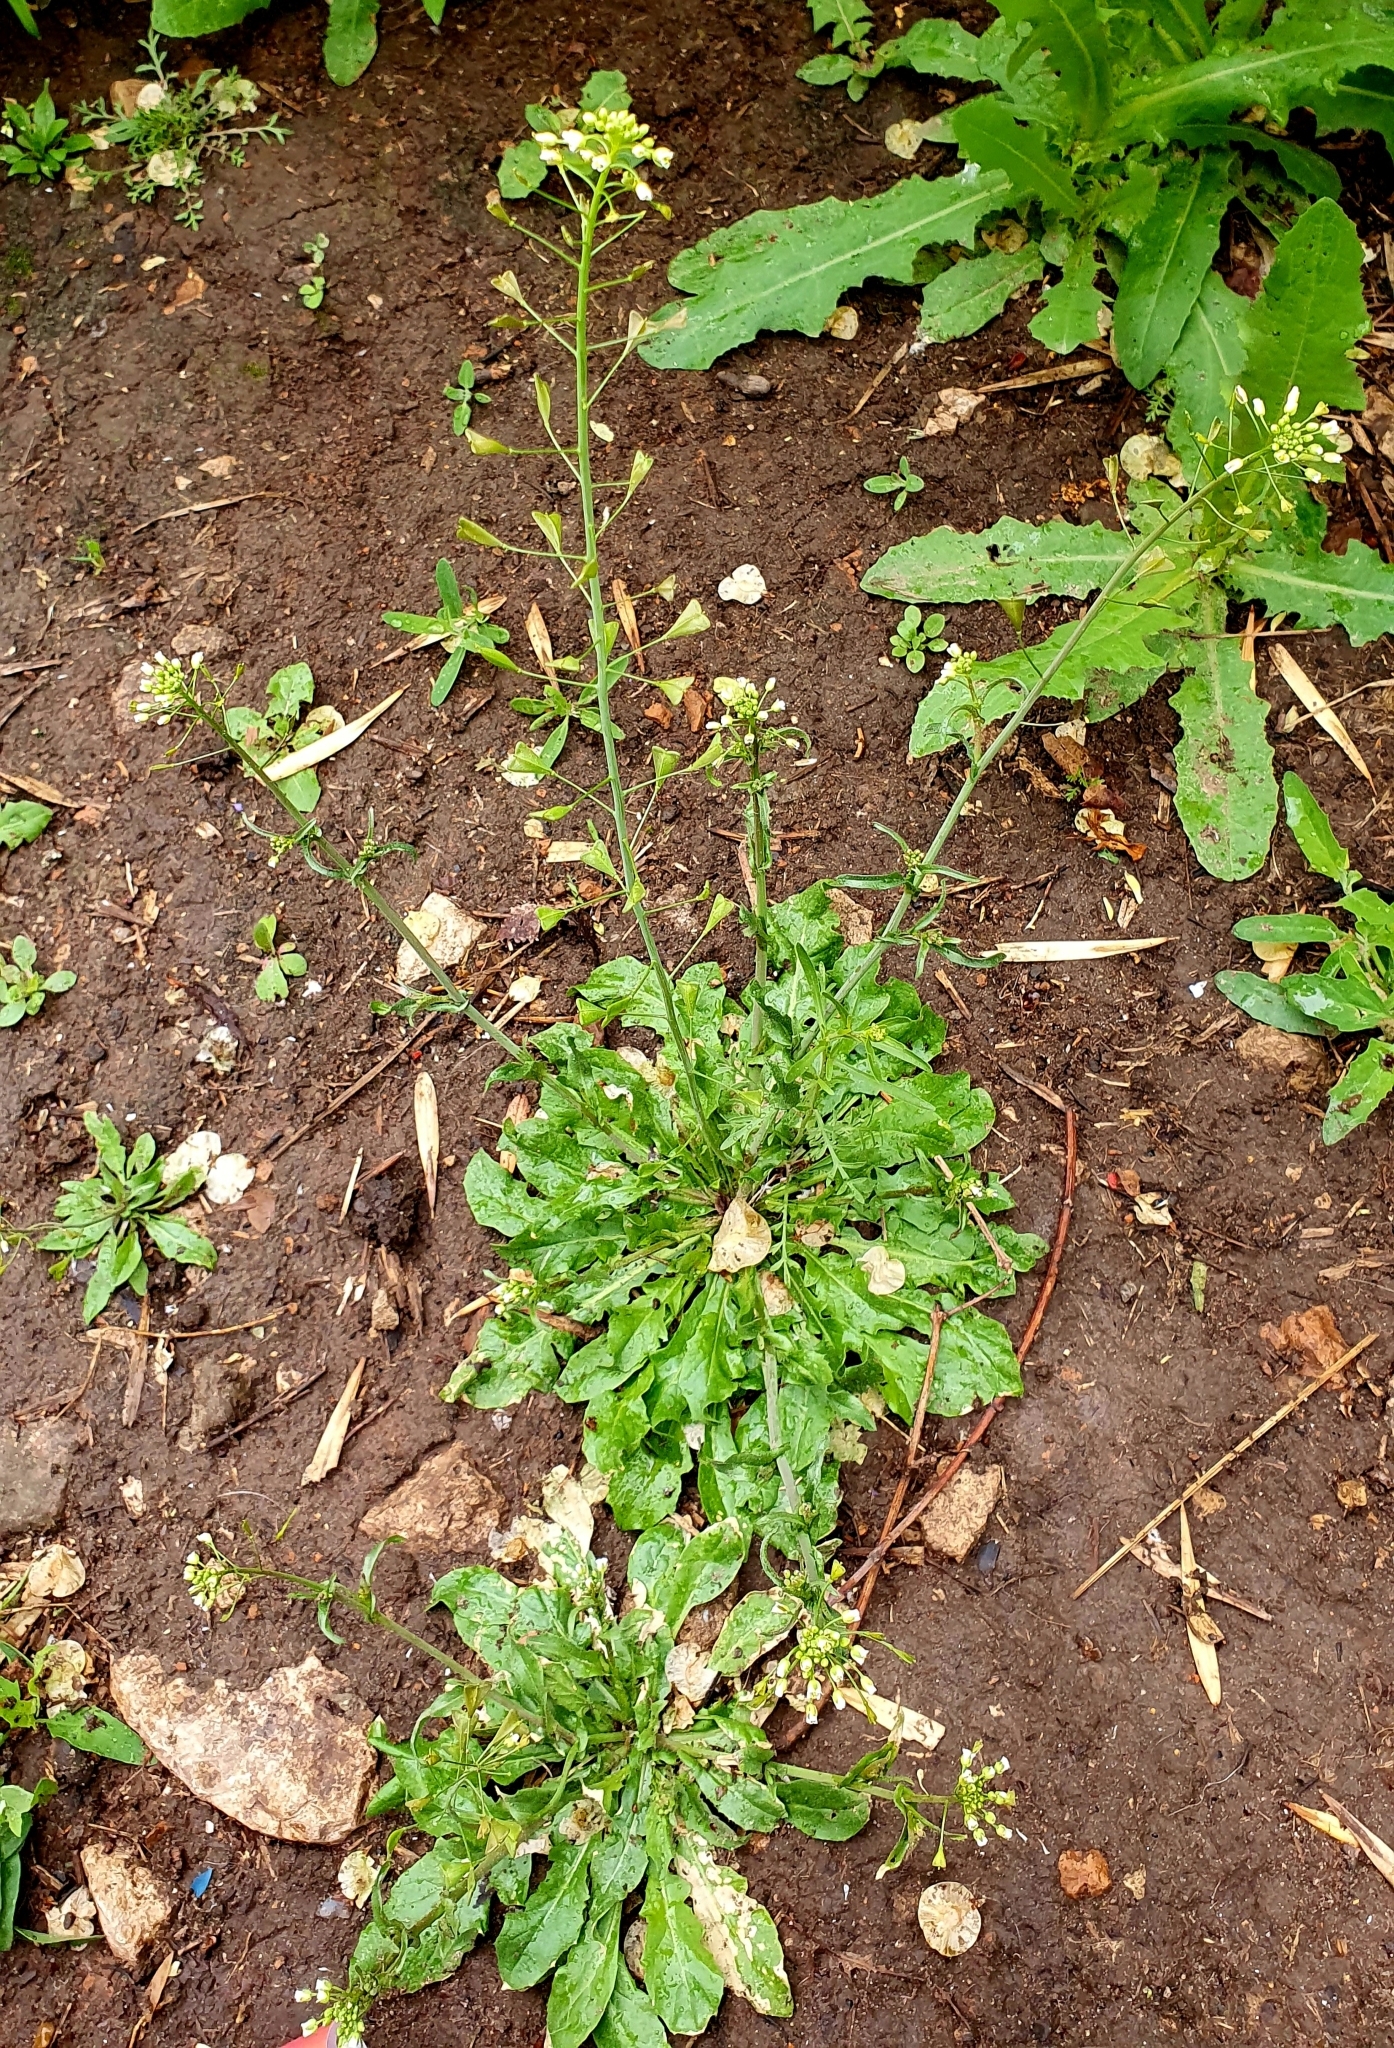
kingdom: Plantae
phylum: Tracheophyta
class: Magnoliopsida
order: Brassicales
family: Brassicaceae
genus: Capsella
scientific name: Capsella bursa-pastoris
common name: Shepherd's purse
